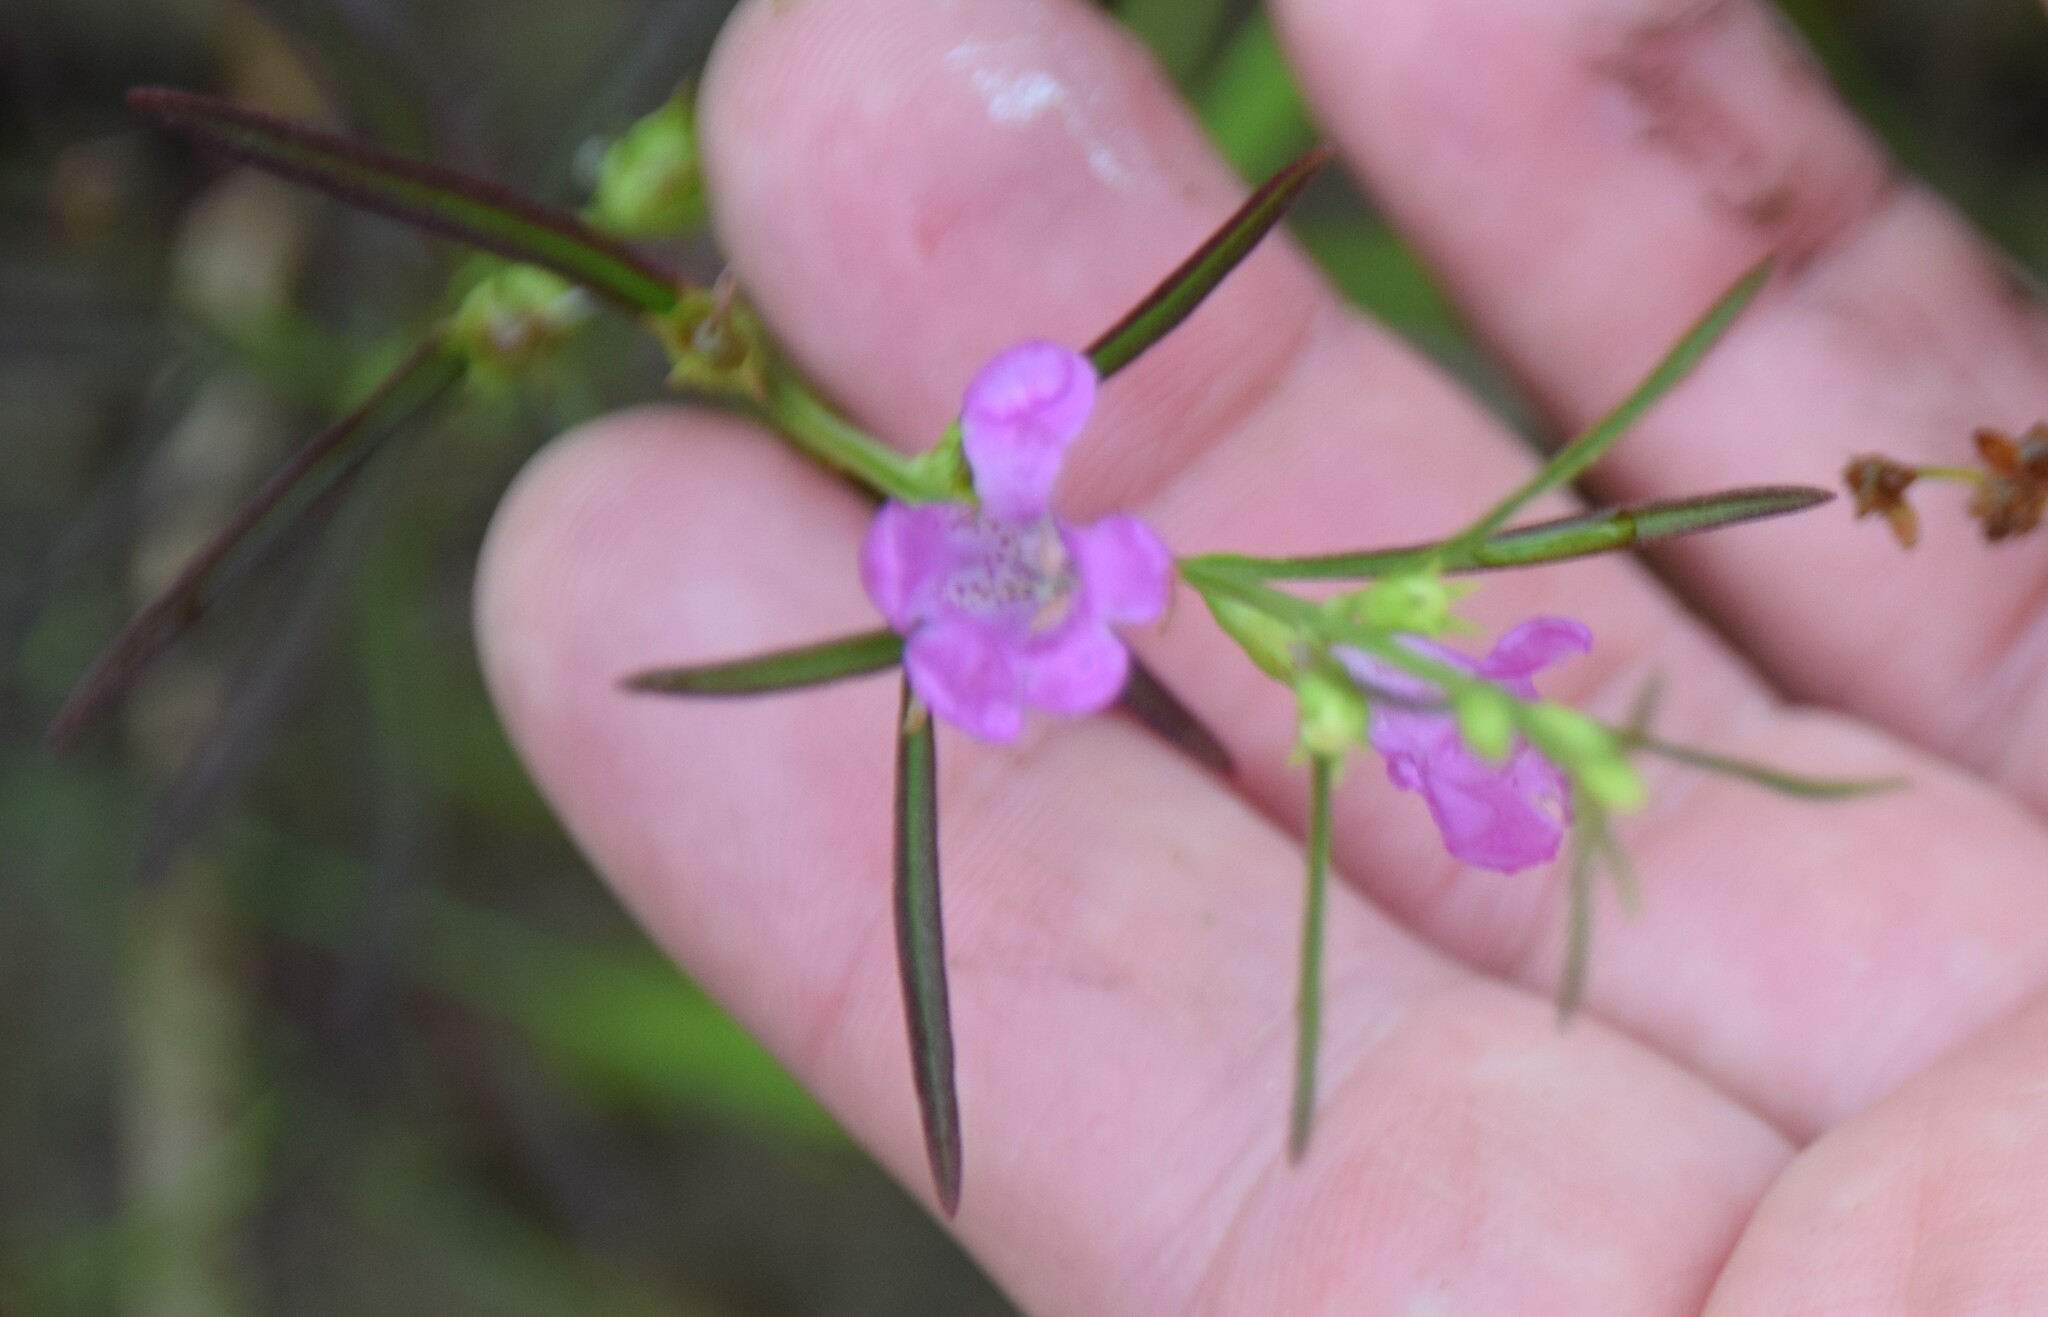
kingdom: Plantae
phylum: Tracheophyta
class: Magnoliopsida
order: Lamiales
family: Orobanchaceae
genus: Agalinis
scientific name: Agalinis purpurea
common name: Purple false foxglove
